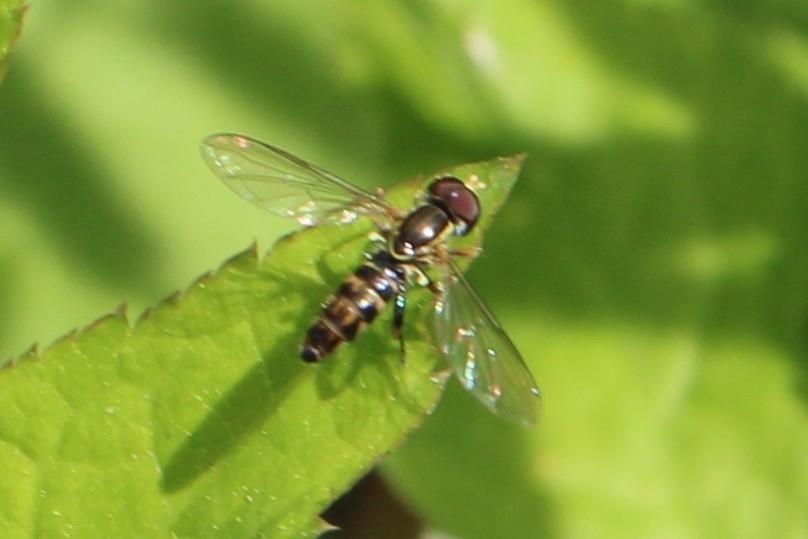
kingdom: Animalia
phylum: Arthropoda
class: Insecta
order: Diptera
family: Syrphidae
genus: Toxomerus
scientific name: Toxomerus geminatus
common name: Eastern calligrapher
